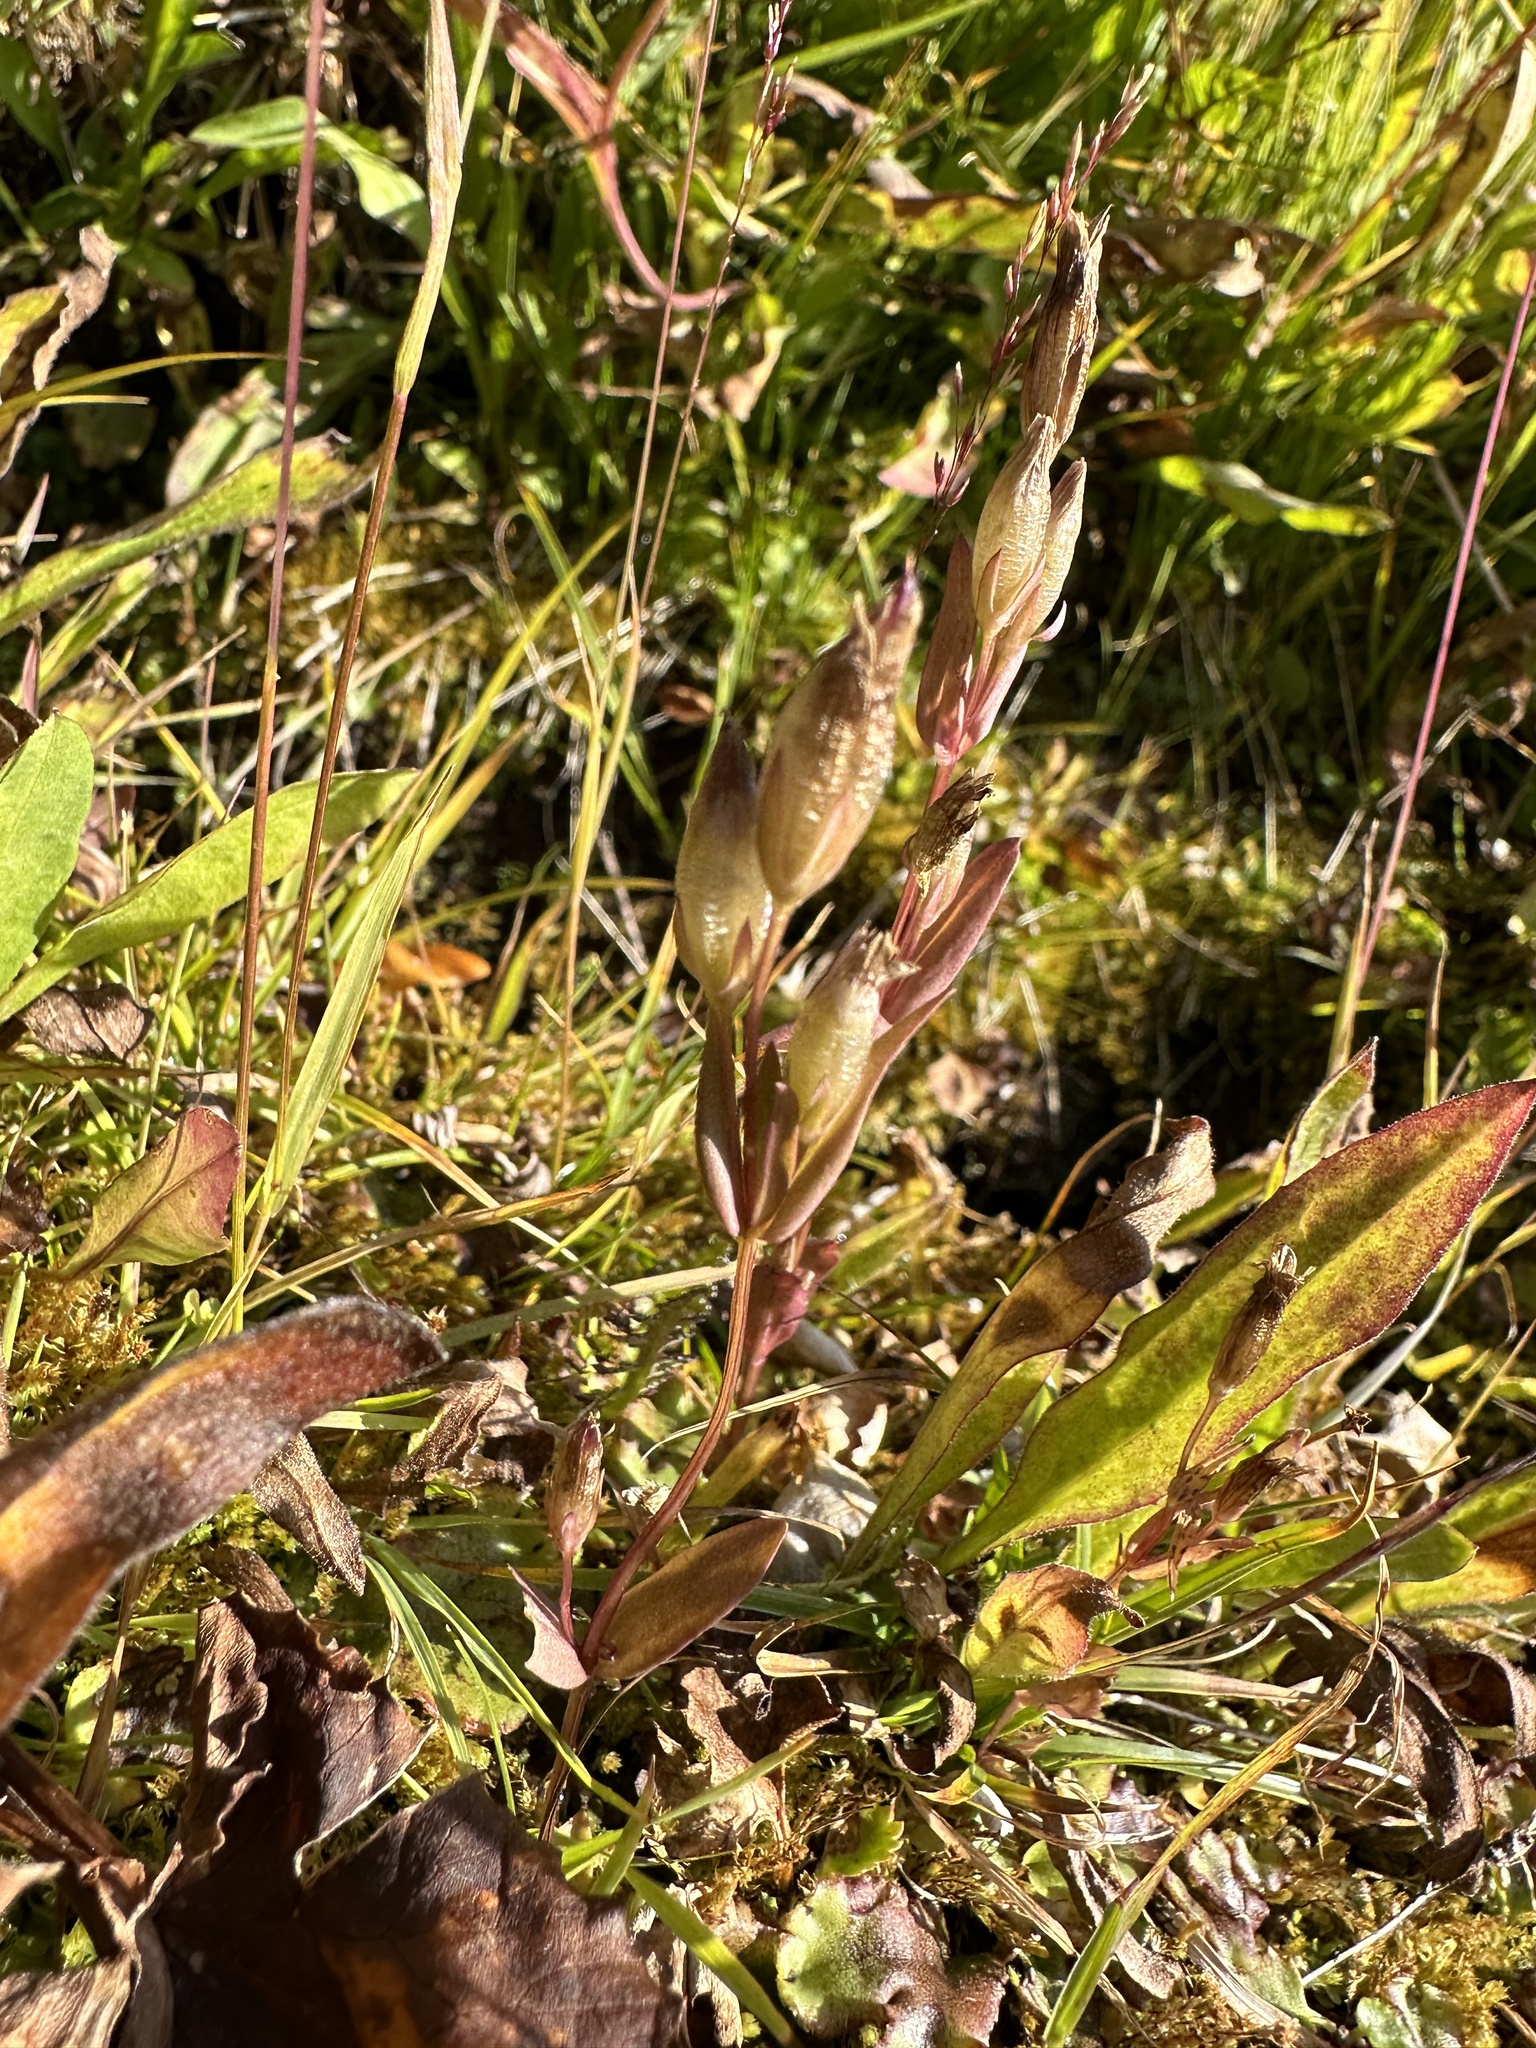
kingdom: Plantae
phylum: Tracheophyta
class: Magnoliopsida
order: Gentianales
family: Gentianaceae
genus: Gentianella
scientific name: Gentianella amarella
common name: Autumn gentian
